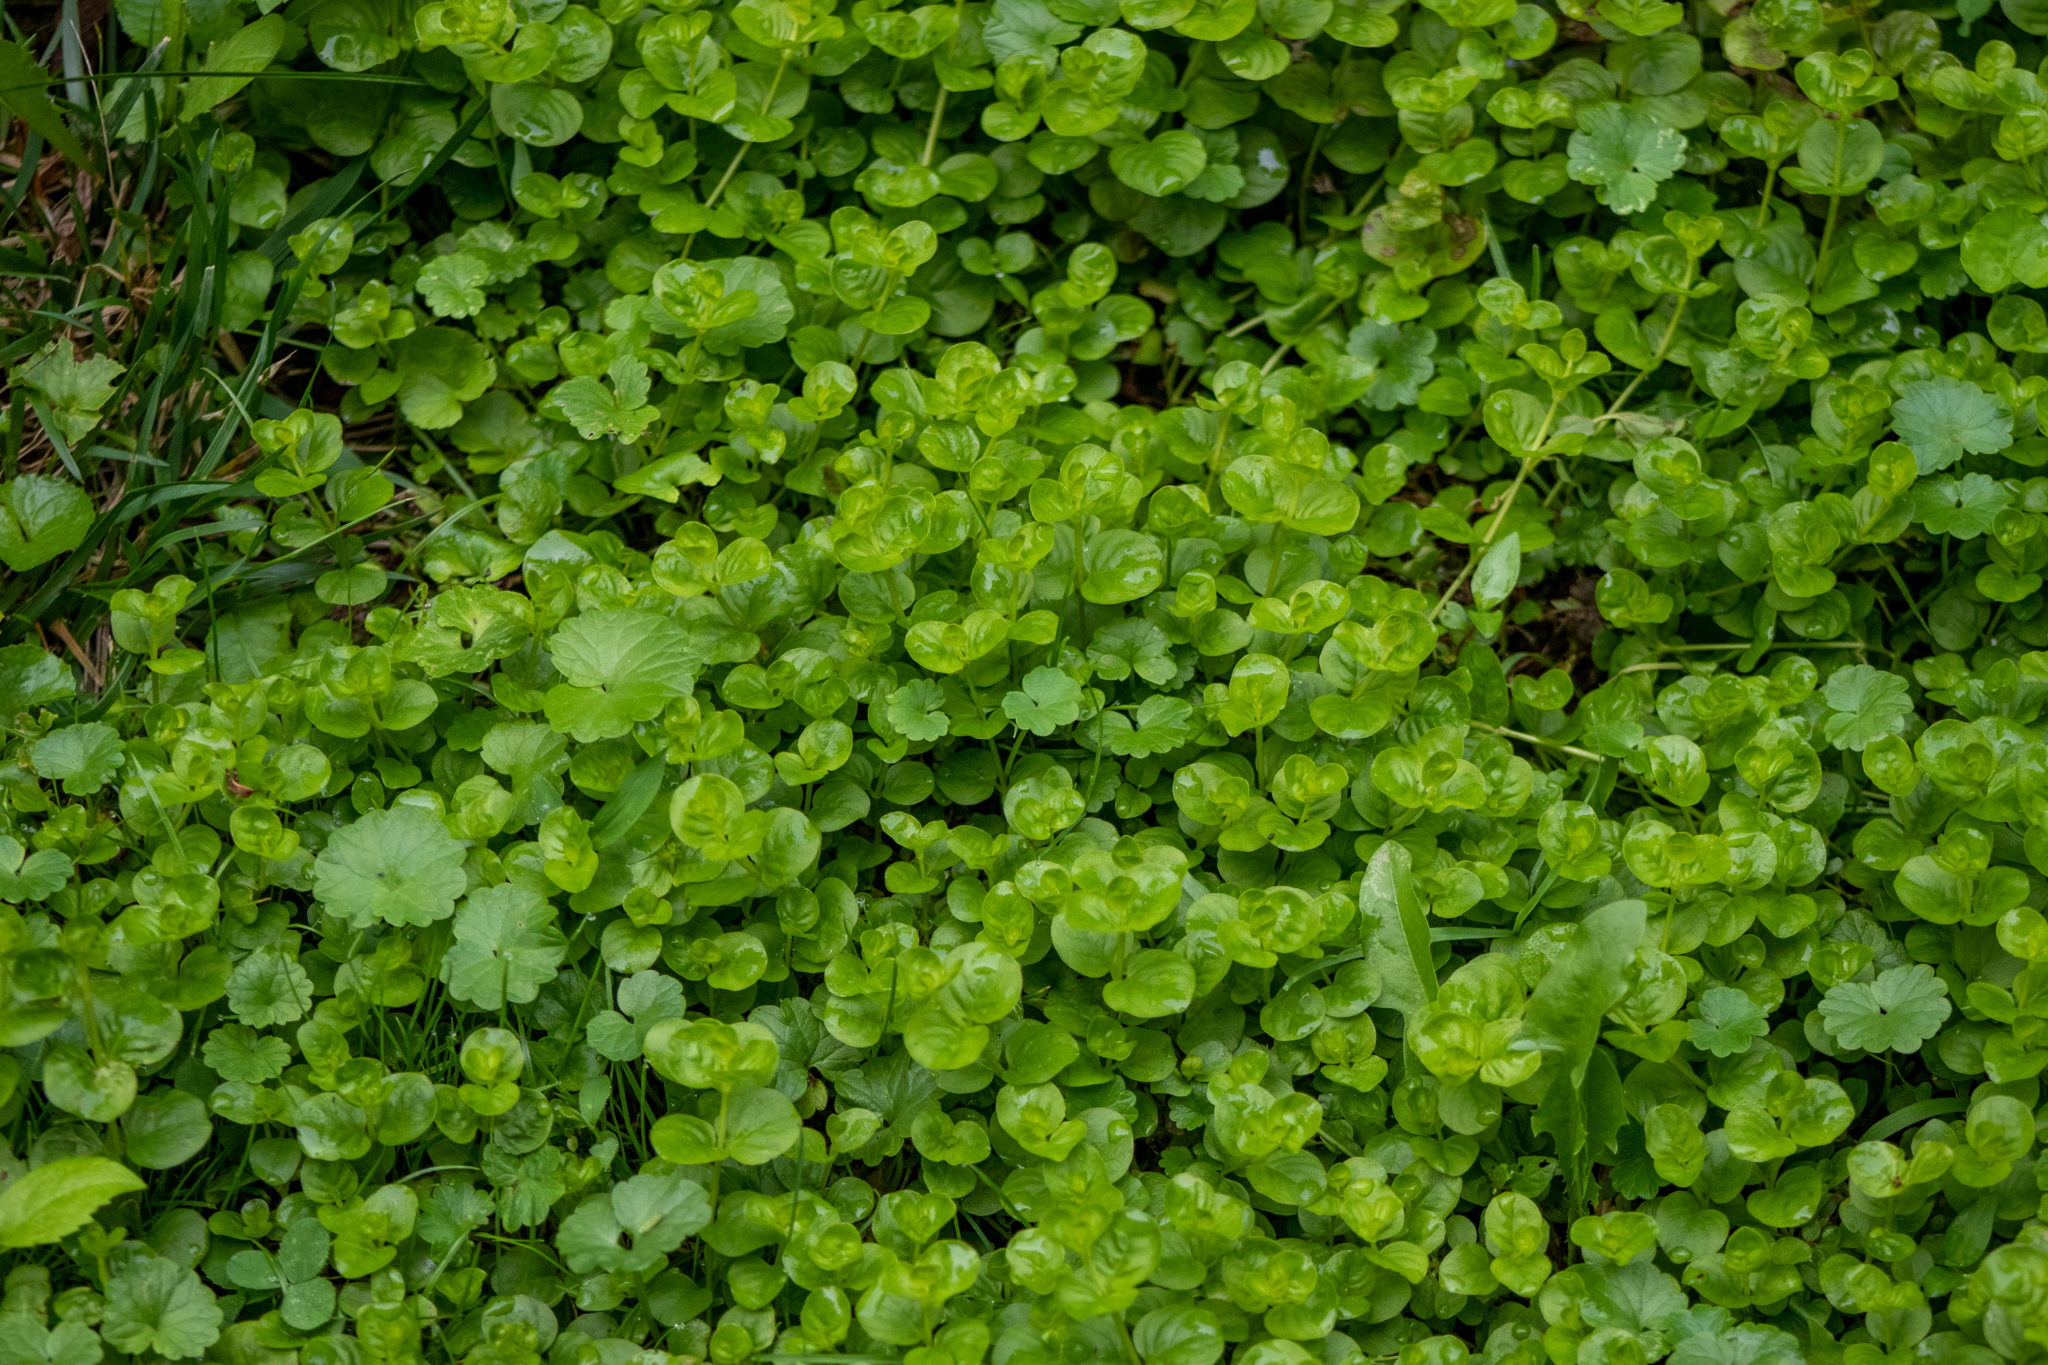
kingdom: Plantae
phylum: Tracheophyta
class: Magnoliopsida
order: Ericales
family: Primulaceae
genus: Lysimachia
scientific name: Lysimachia nummularia
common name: Moneywort
